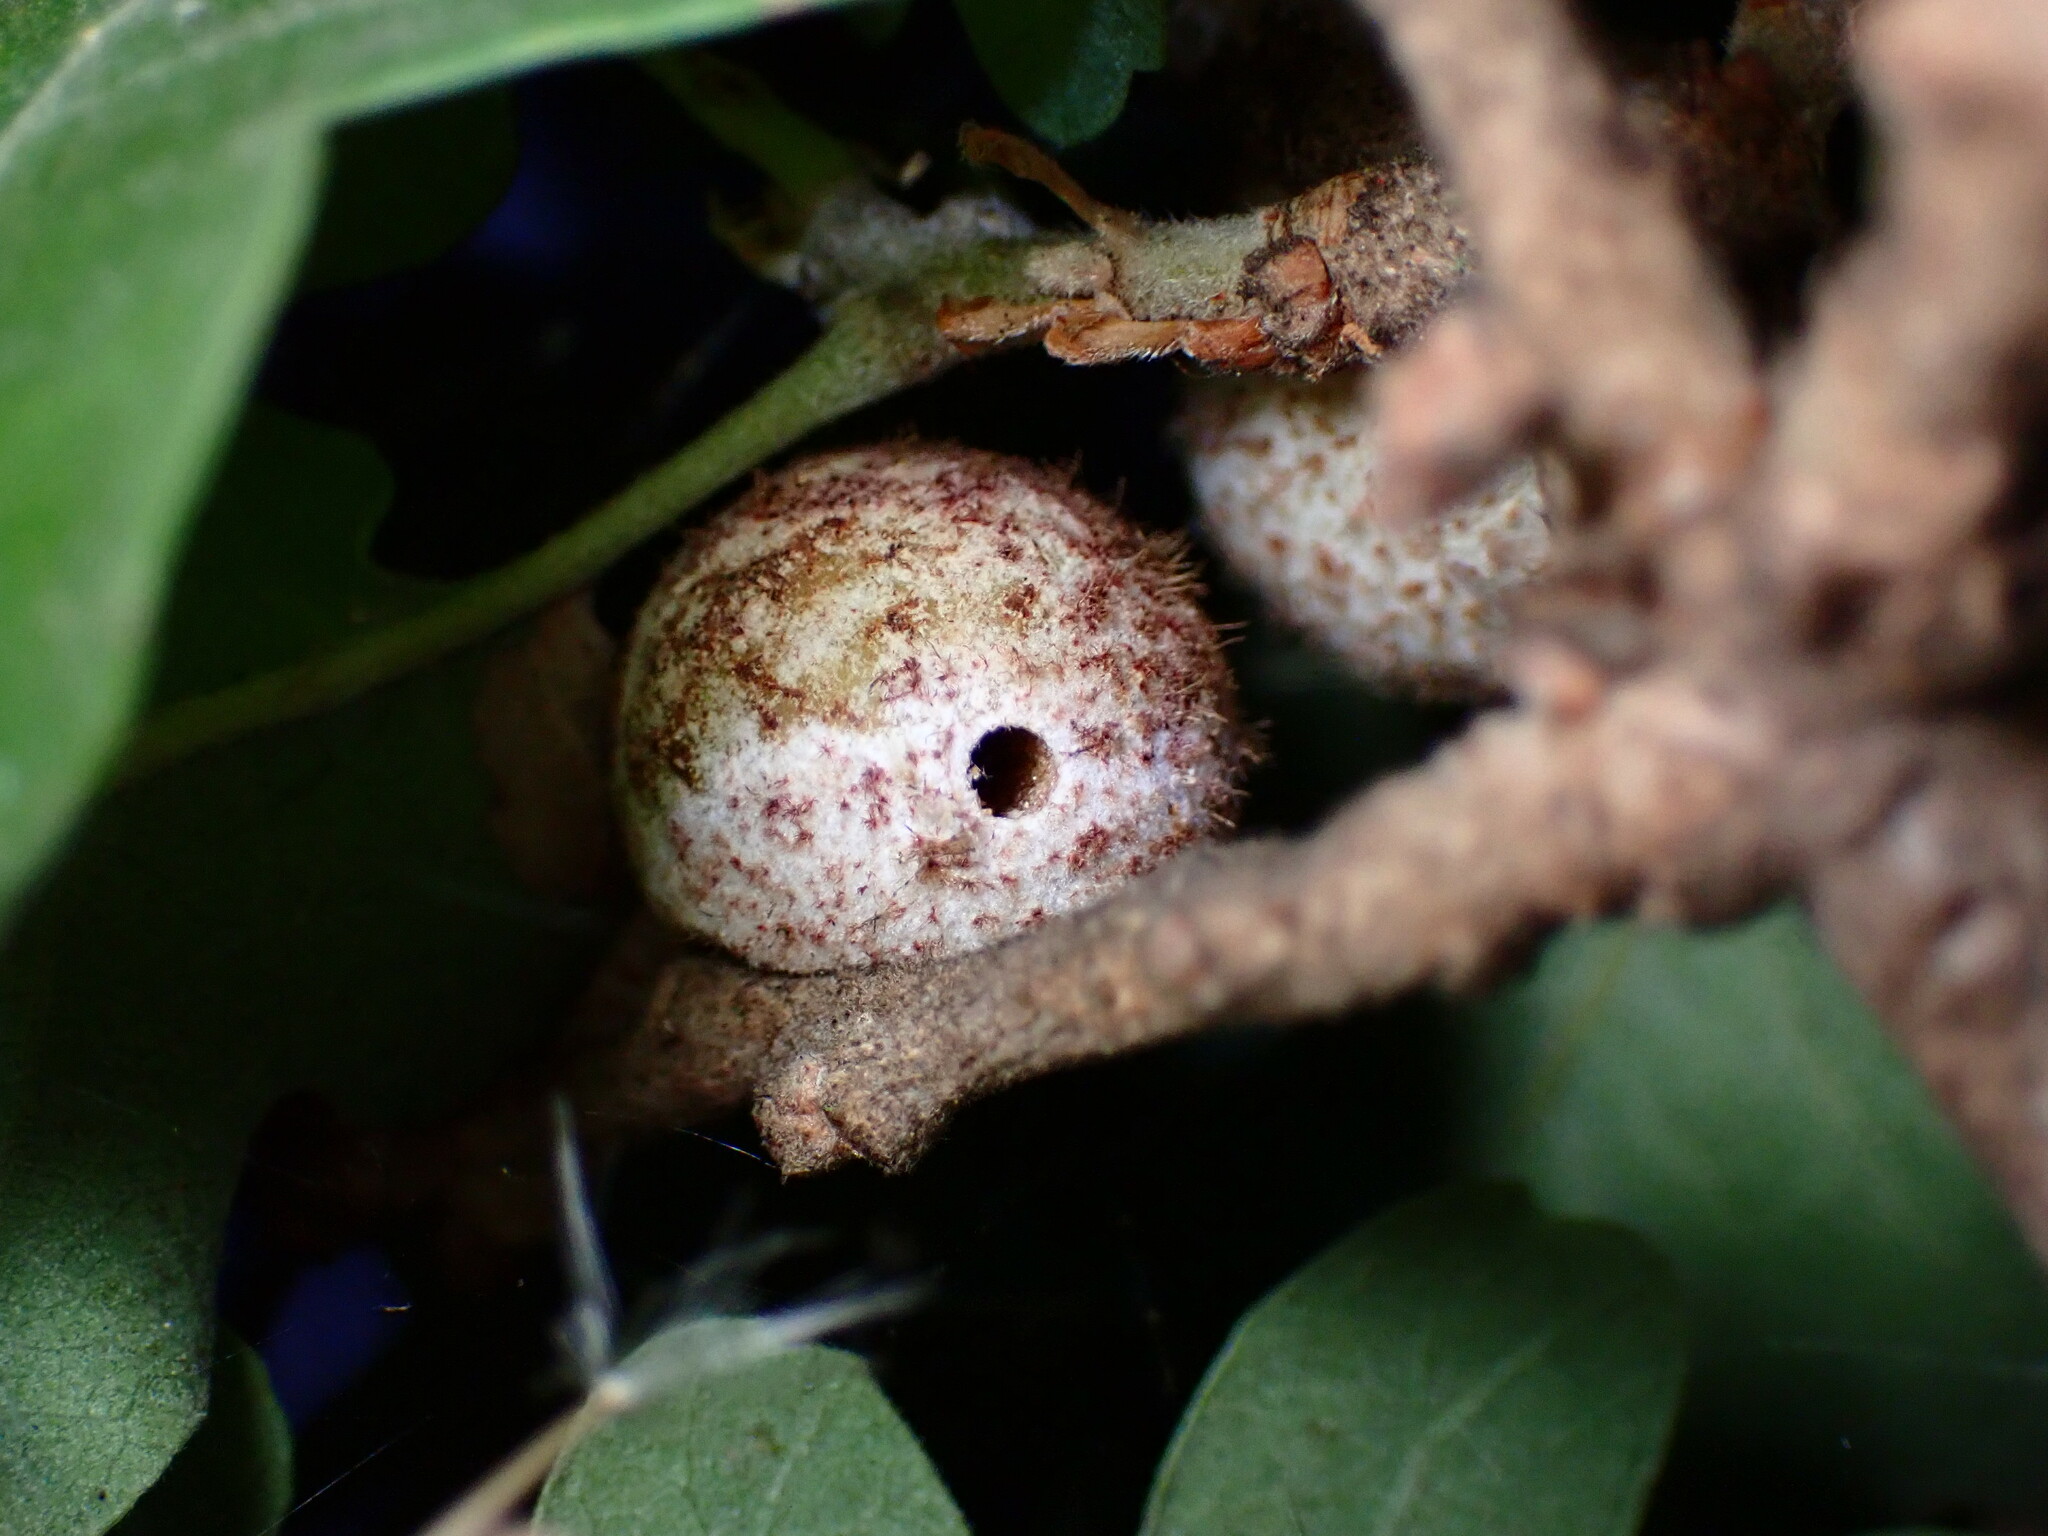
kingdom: Animalia
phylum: Arthropoda
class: Insecta
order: Hymenoptera
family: Cynipidae
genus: Burnettweldia
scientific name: Burnettweldia
